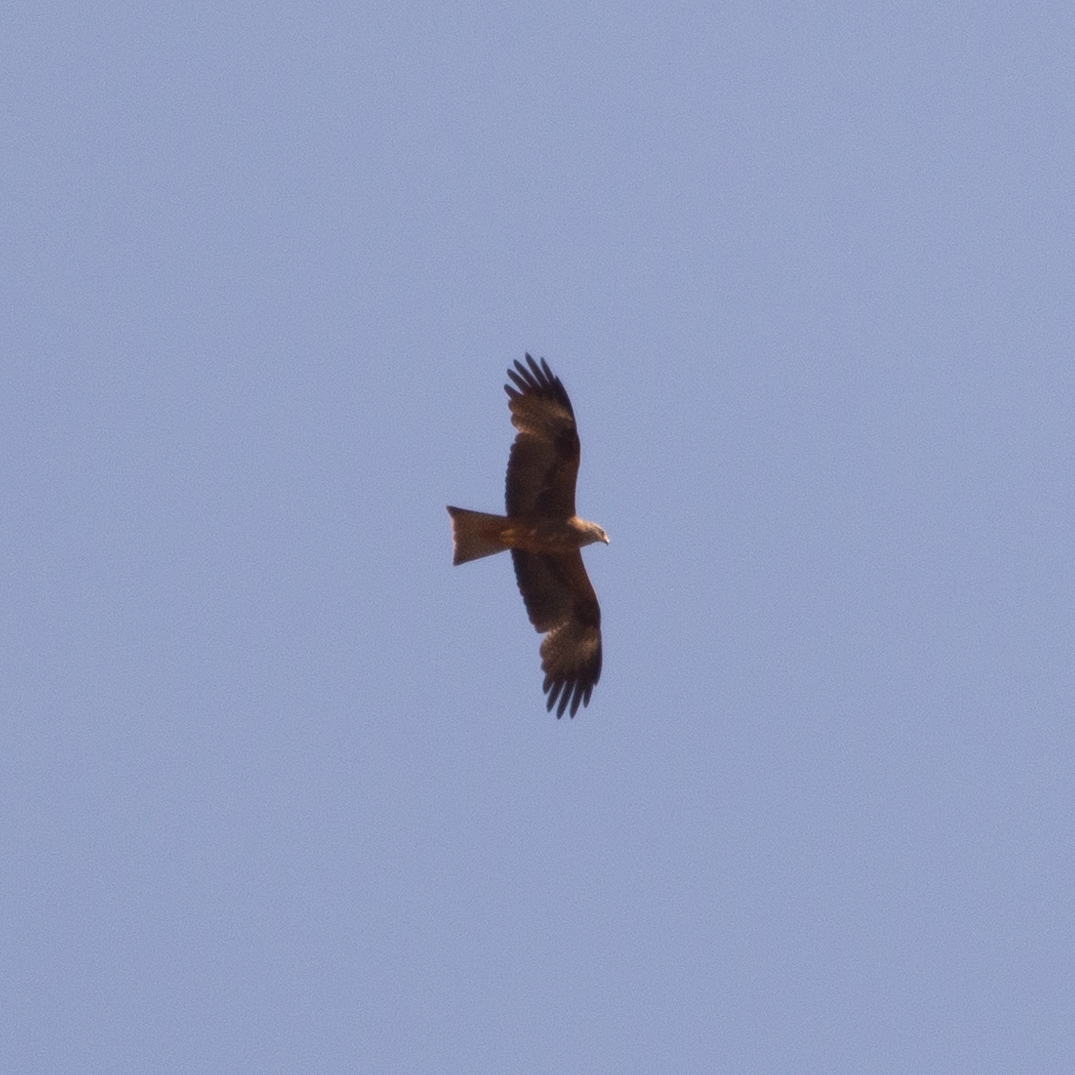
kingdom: Animalia
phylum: Chordata
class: Aves
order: Accipitriformes
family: Accipitridae
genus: Milvus
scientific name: Milvus migrans
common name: Black kite
